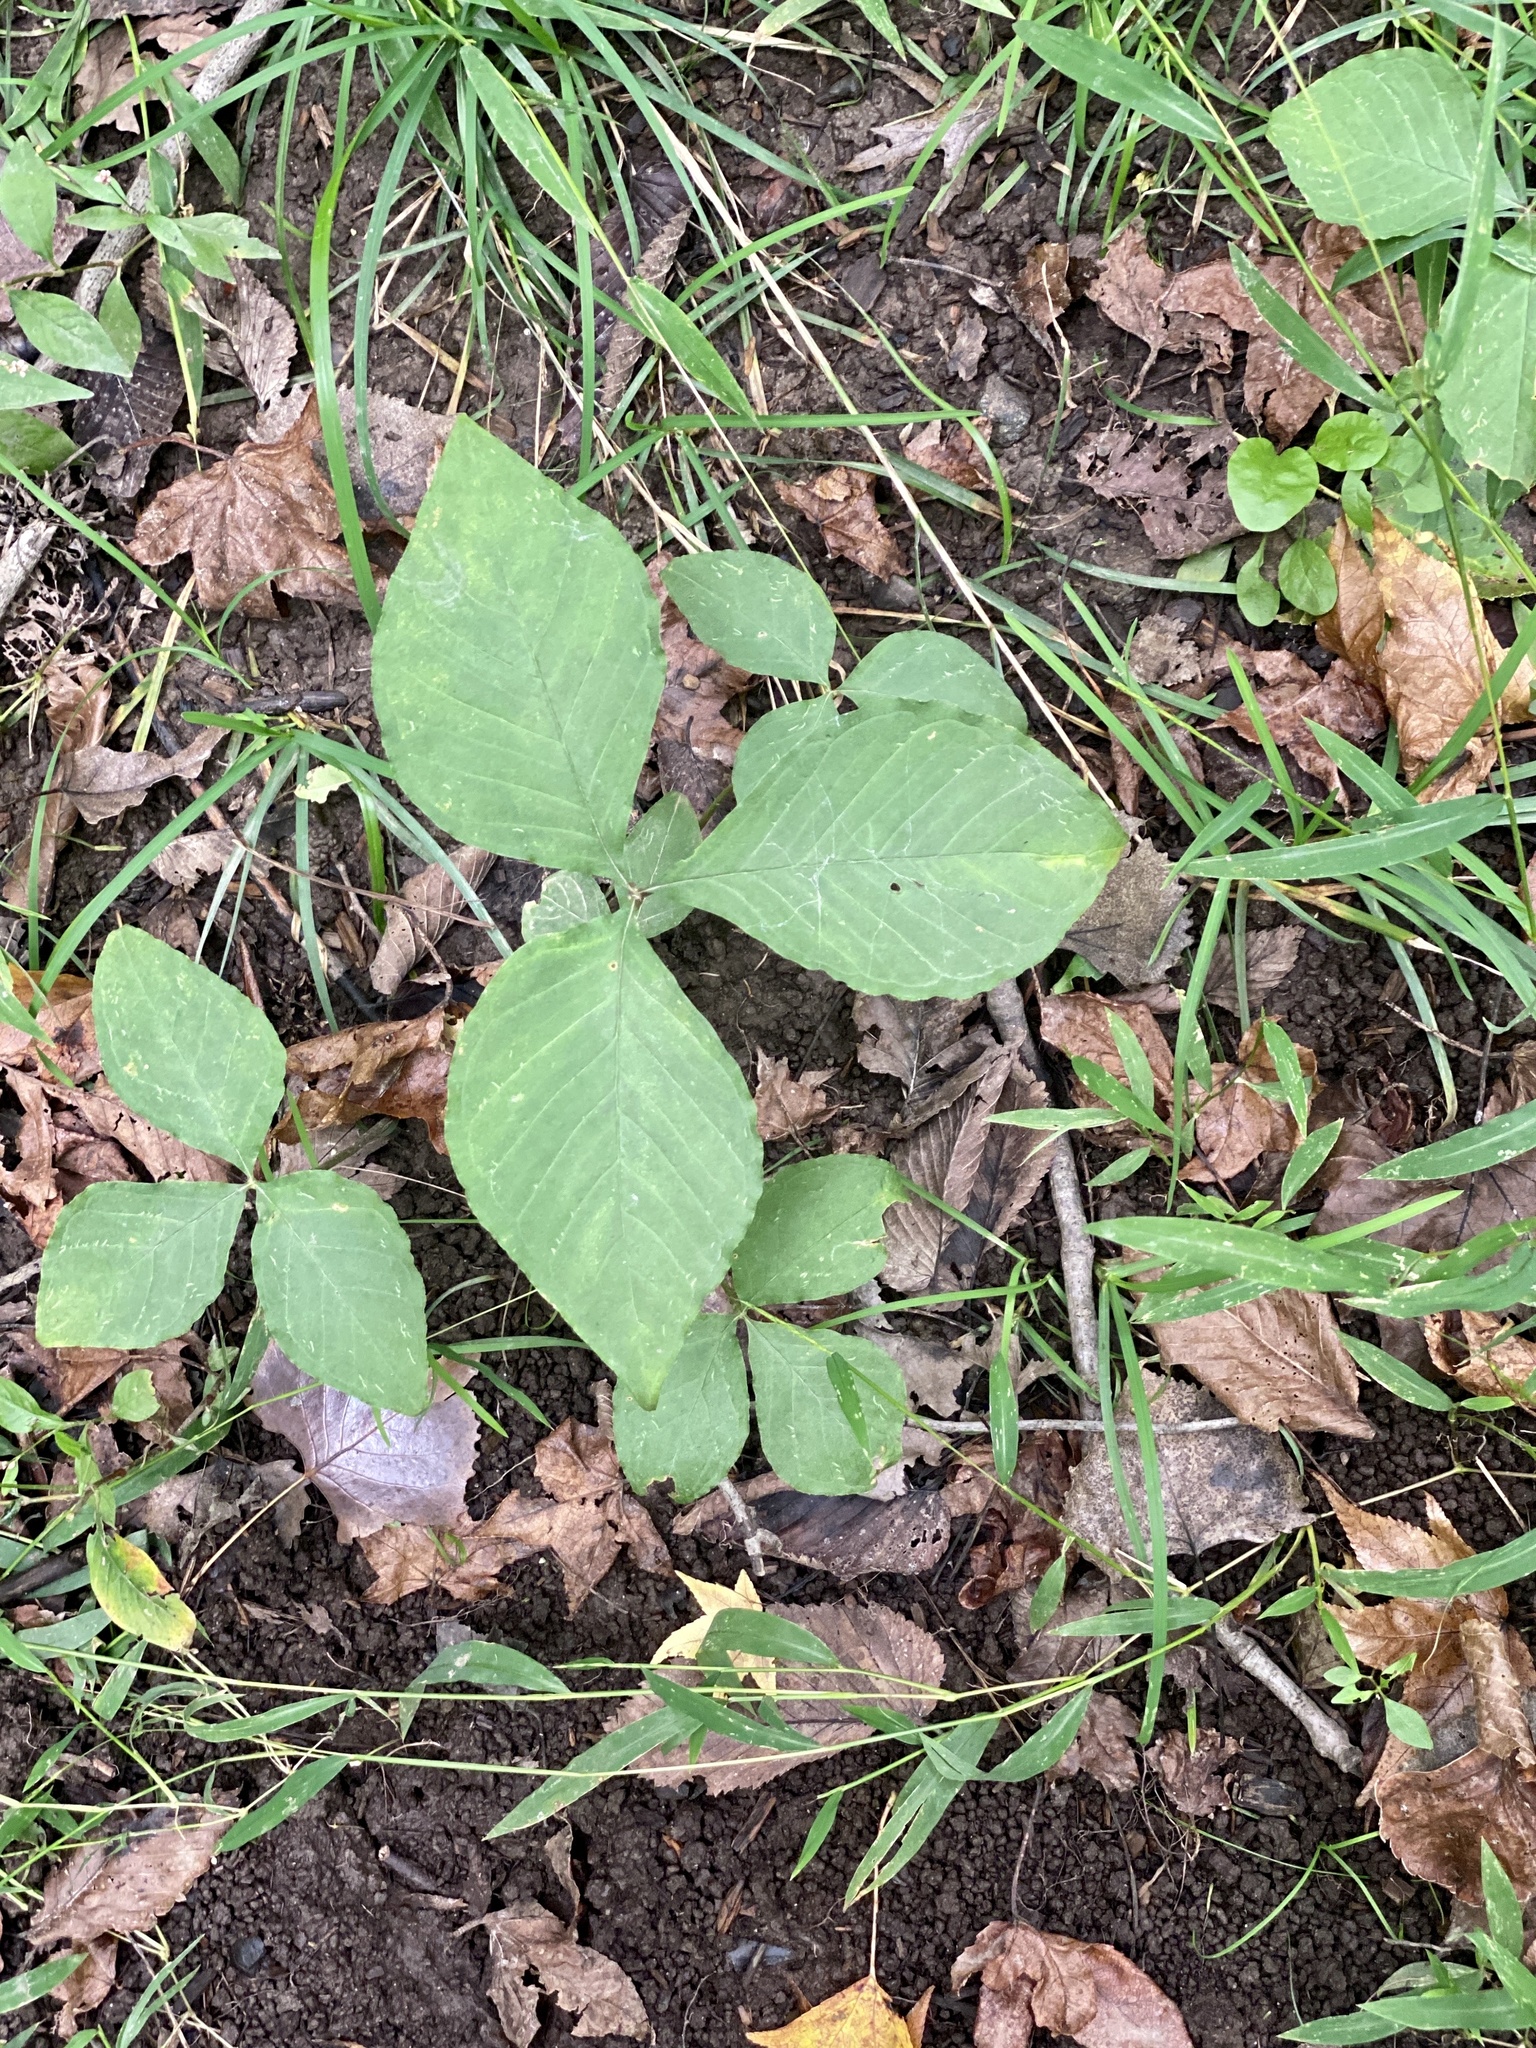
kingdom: Plantae
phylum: Tracheophyta
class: Liliopsida
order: Alismatales
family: Araceae
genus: Arisaema
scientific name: Arisaema triphyllum
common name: Jack-in-the-pulpit
